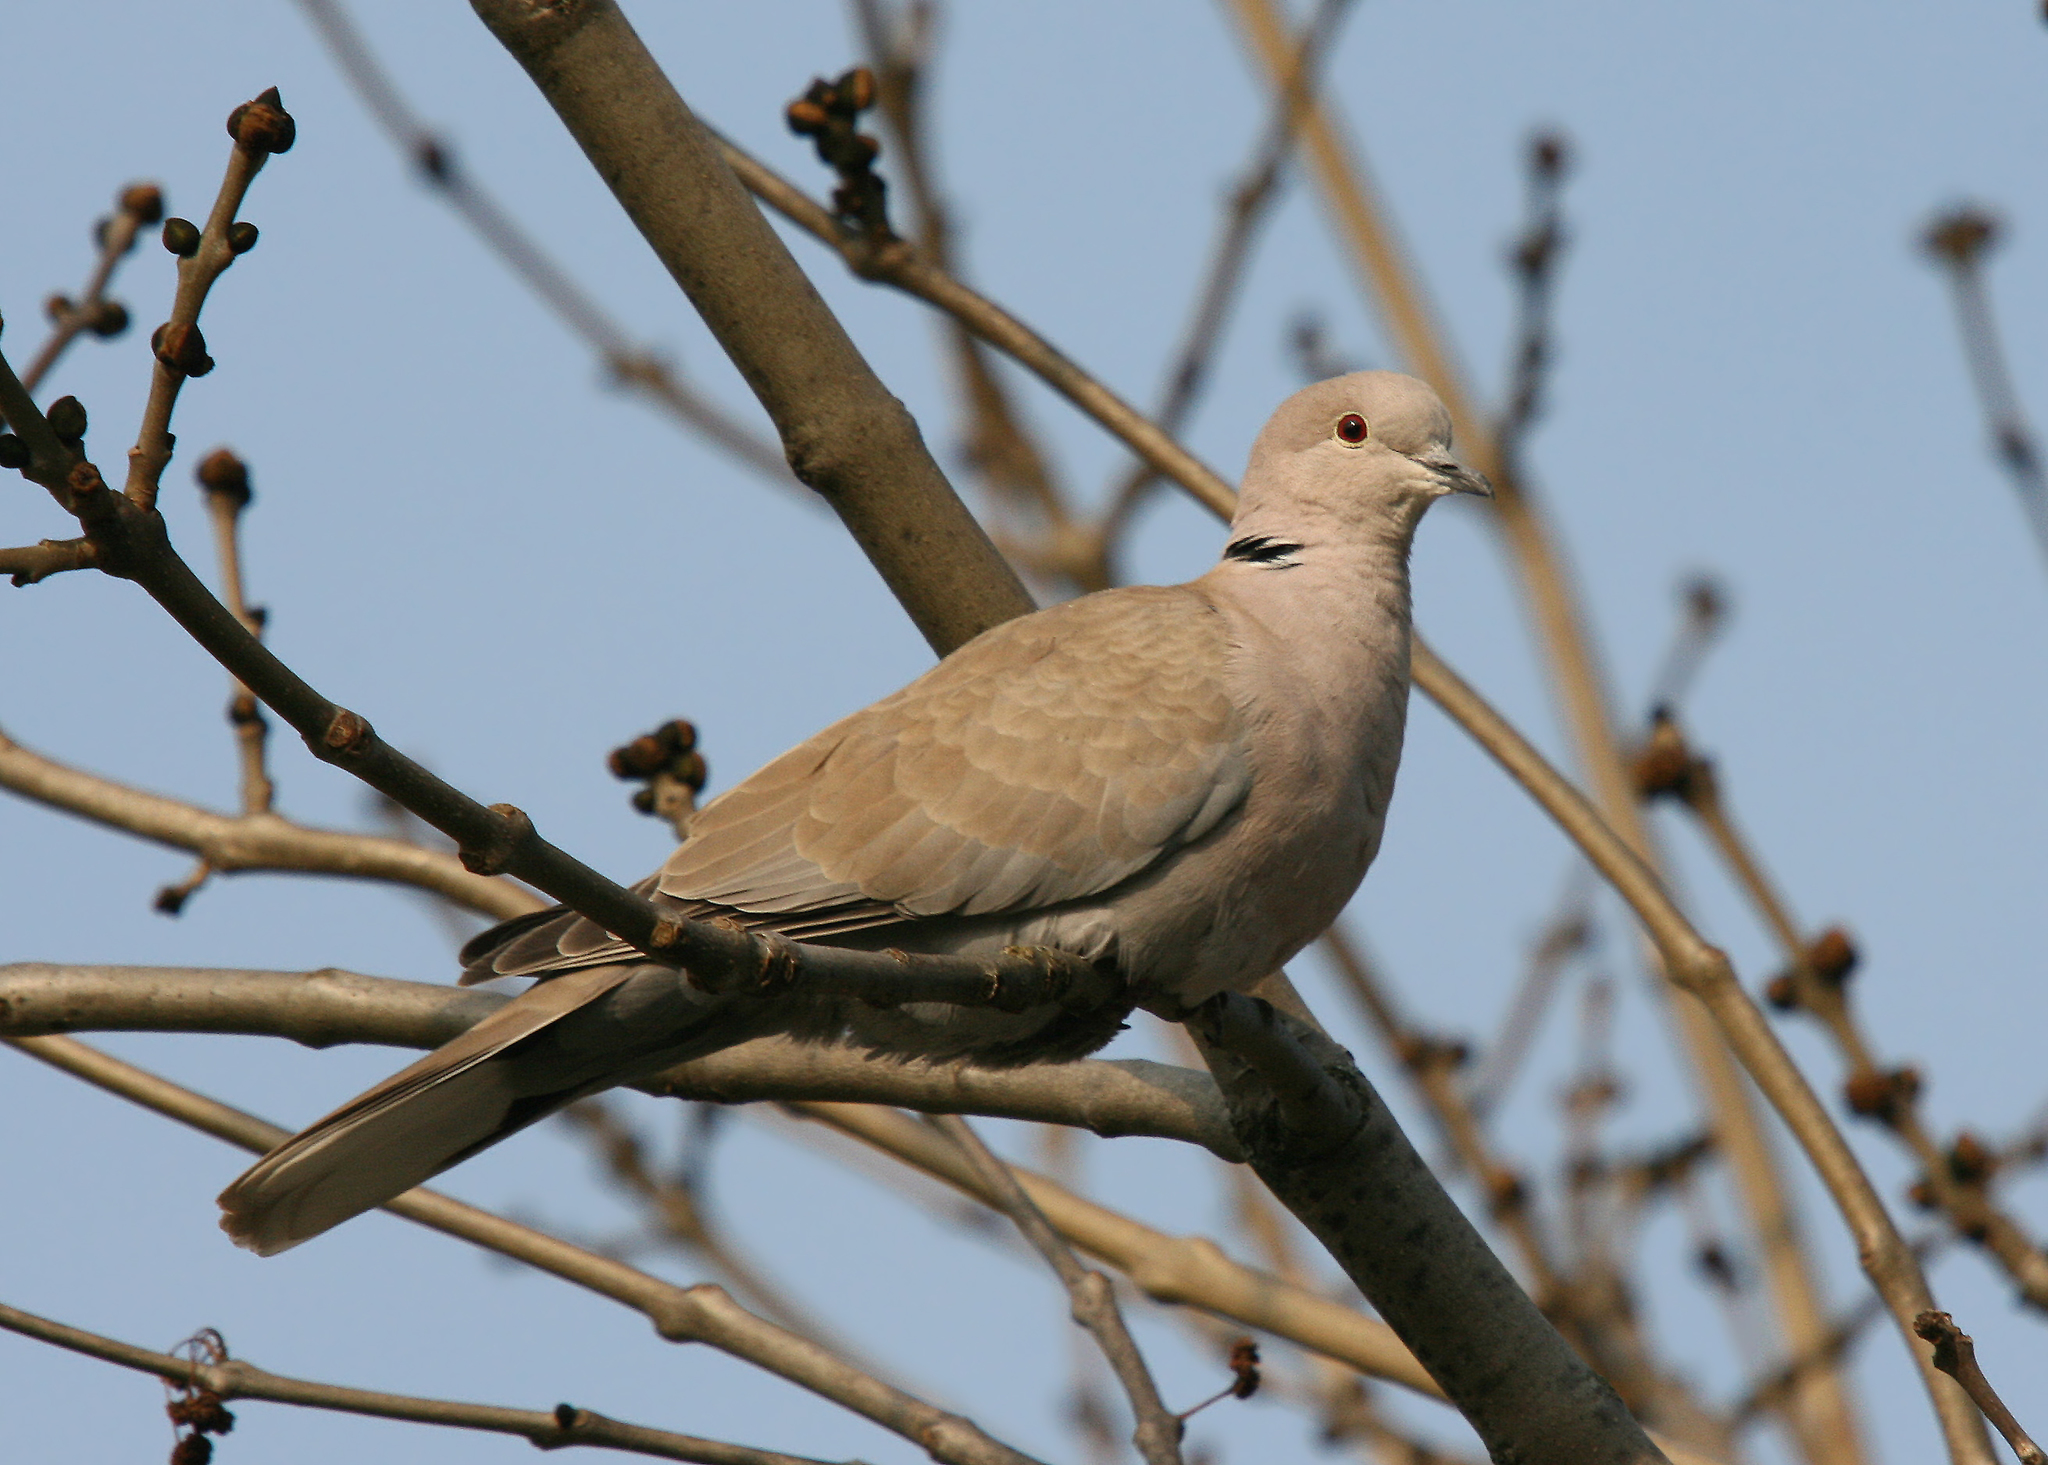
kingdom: Animalia
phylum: Chordata
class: Aves
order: Columbiformes
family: Columbidae
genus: Streptopelia
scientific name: Streptopelia decaocto
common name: Eurasian collared dove
